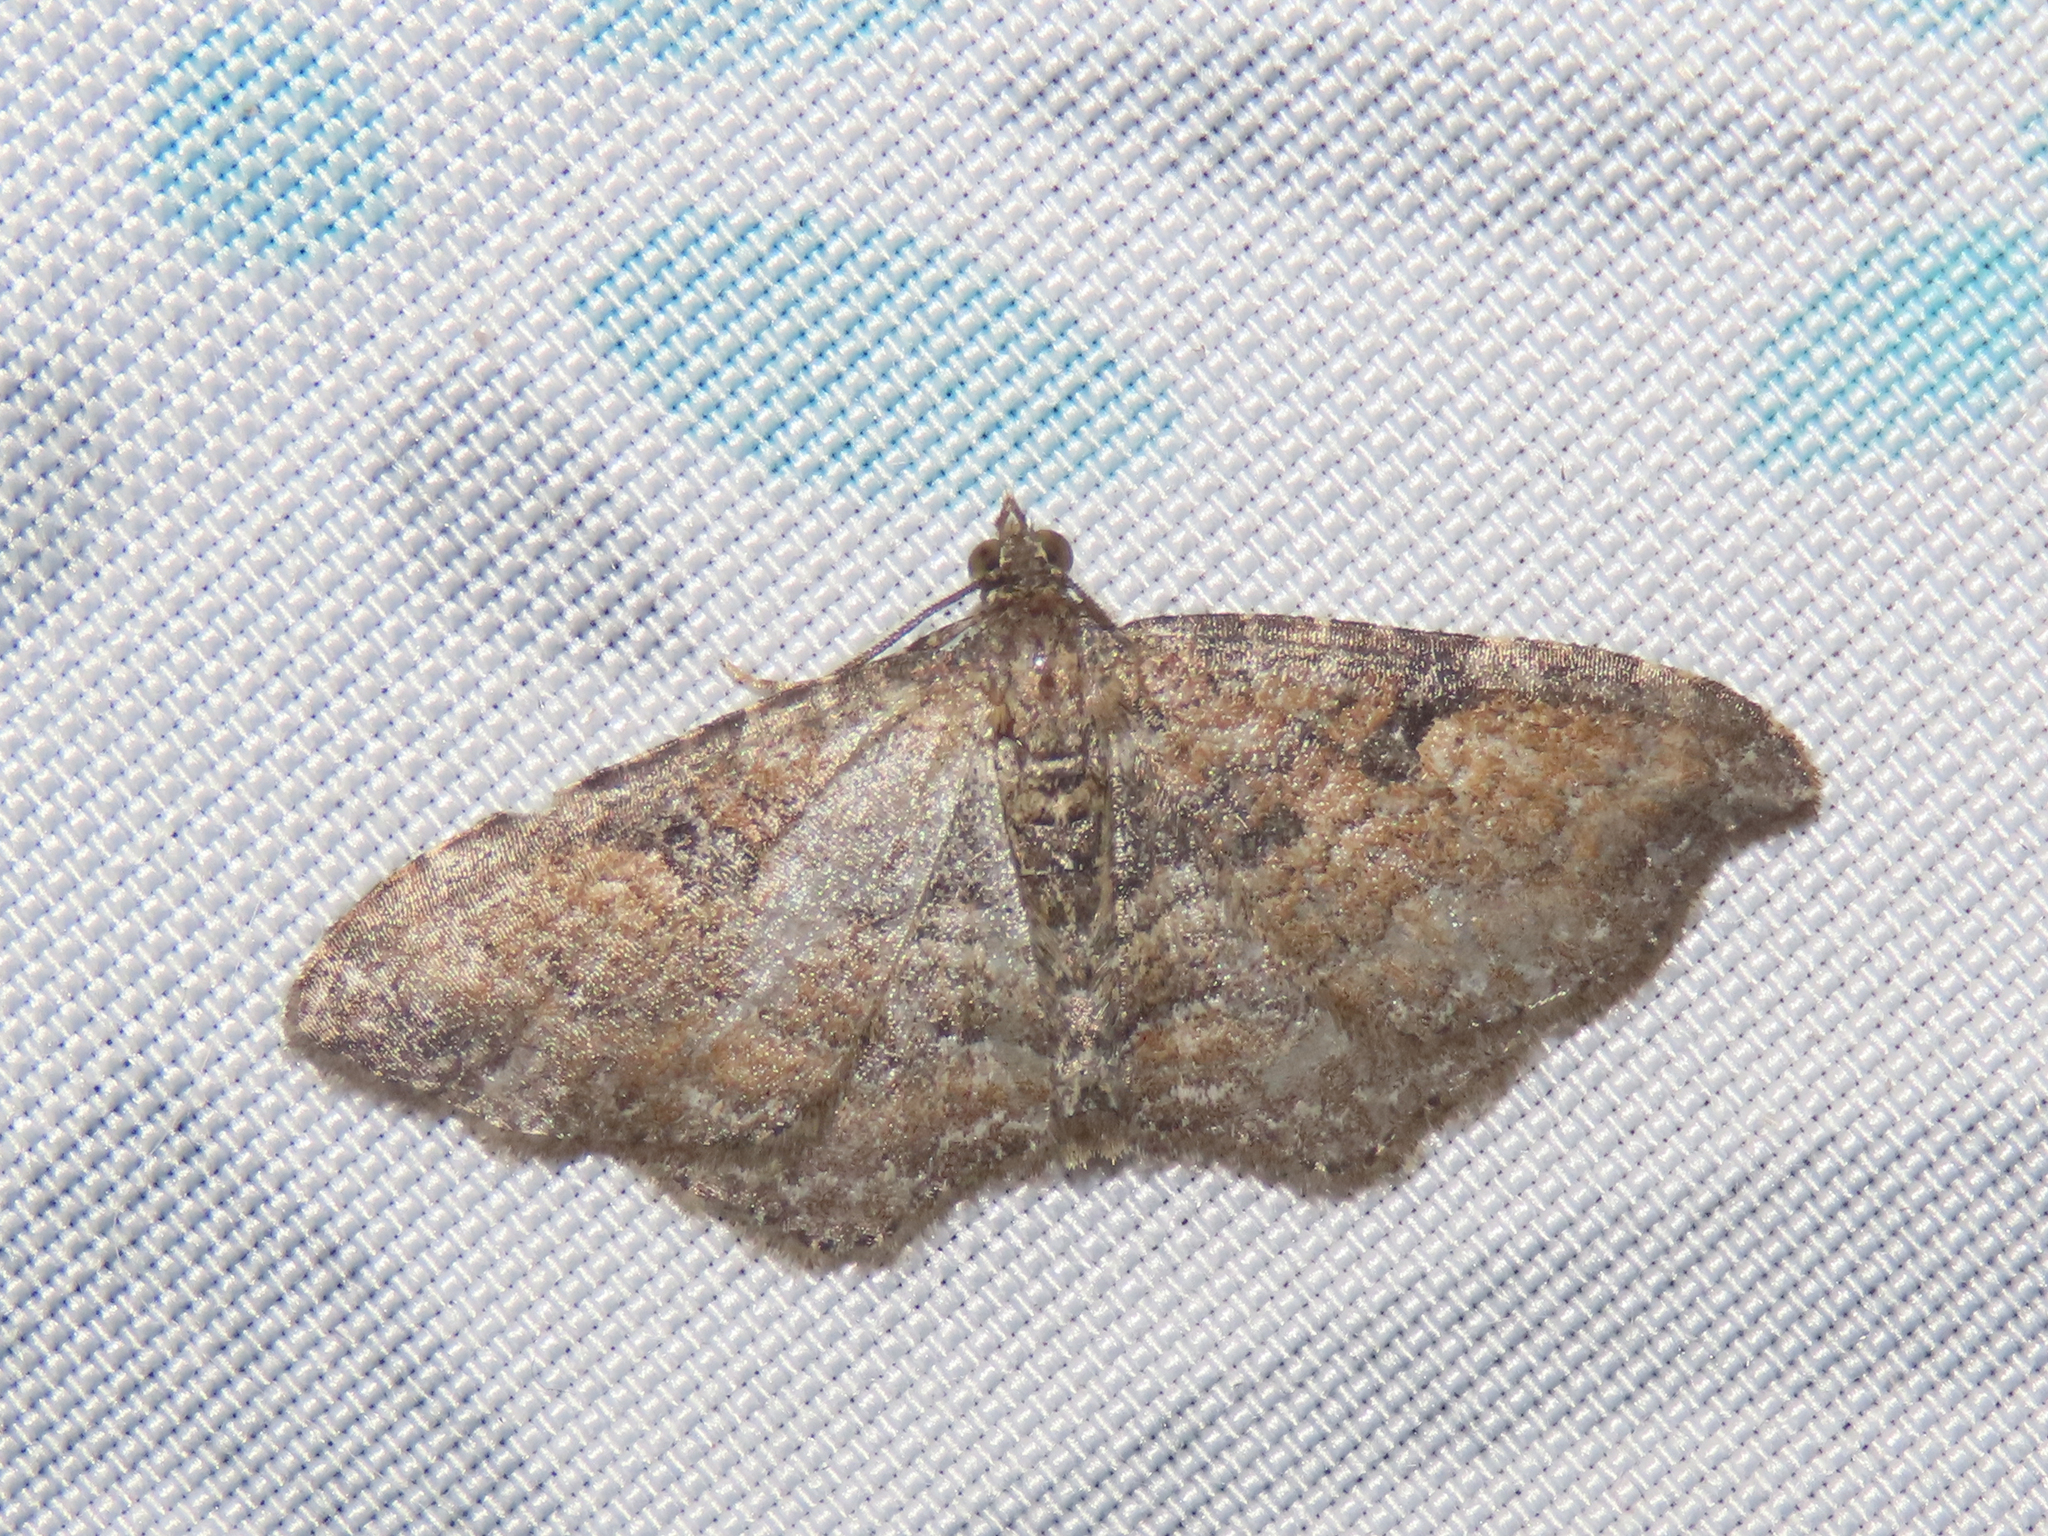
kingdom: Animalia
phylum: Arthropoda
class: Insecta
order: Lepidoptera
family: Geometridae
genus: Orthonama
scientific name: Orthonama obstipata
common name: The gem
